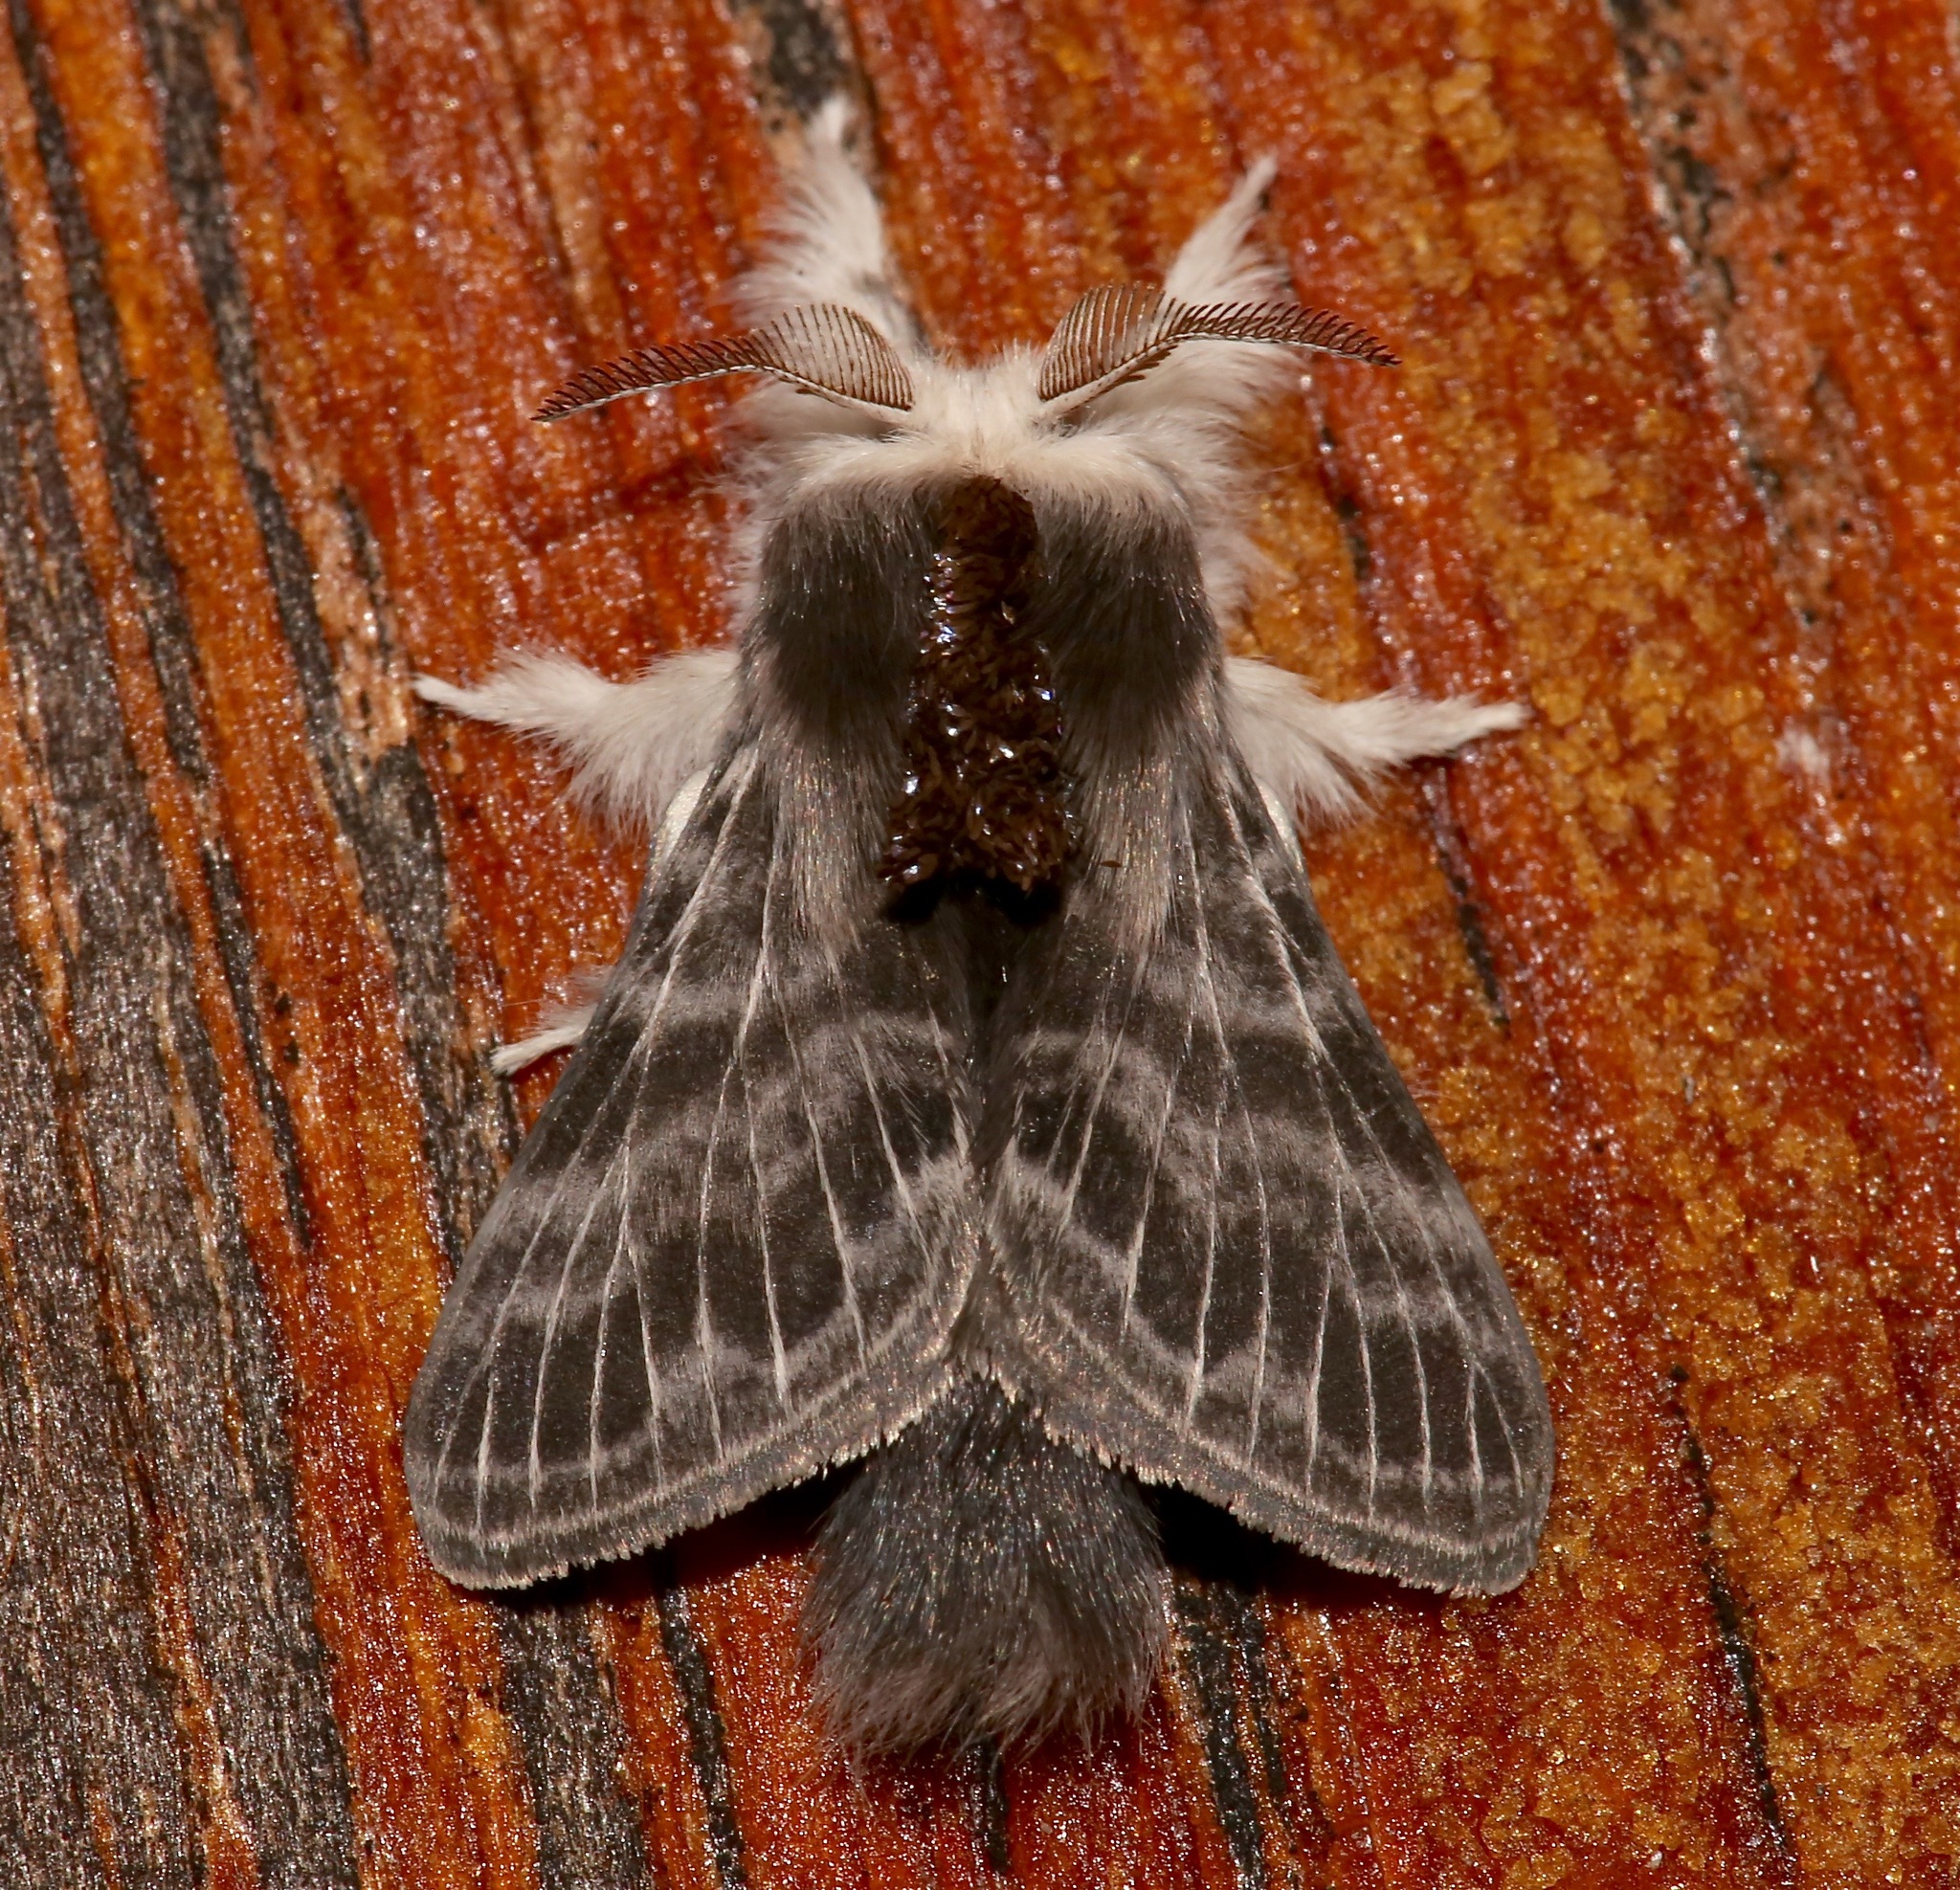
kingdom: Animalia
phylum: Arthropoda
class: Insecta
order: Lepidoptera
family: Lasiocampidae
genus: Tolype
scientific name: Tolype laricis
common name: Larch tolype moth
